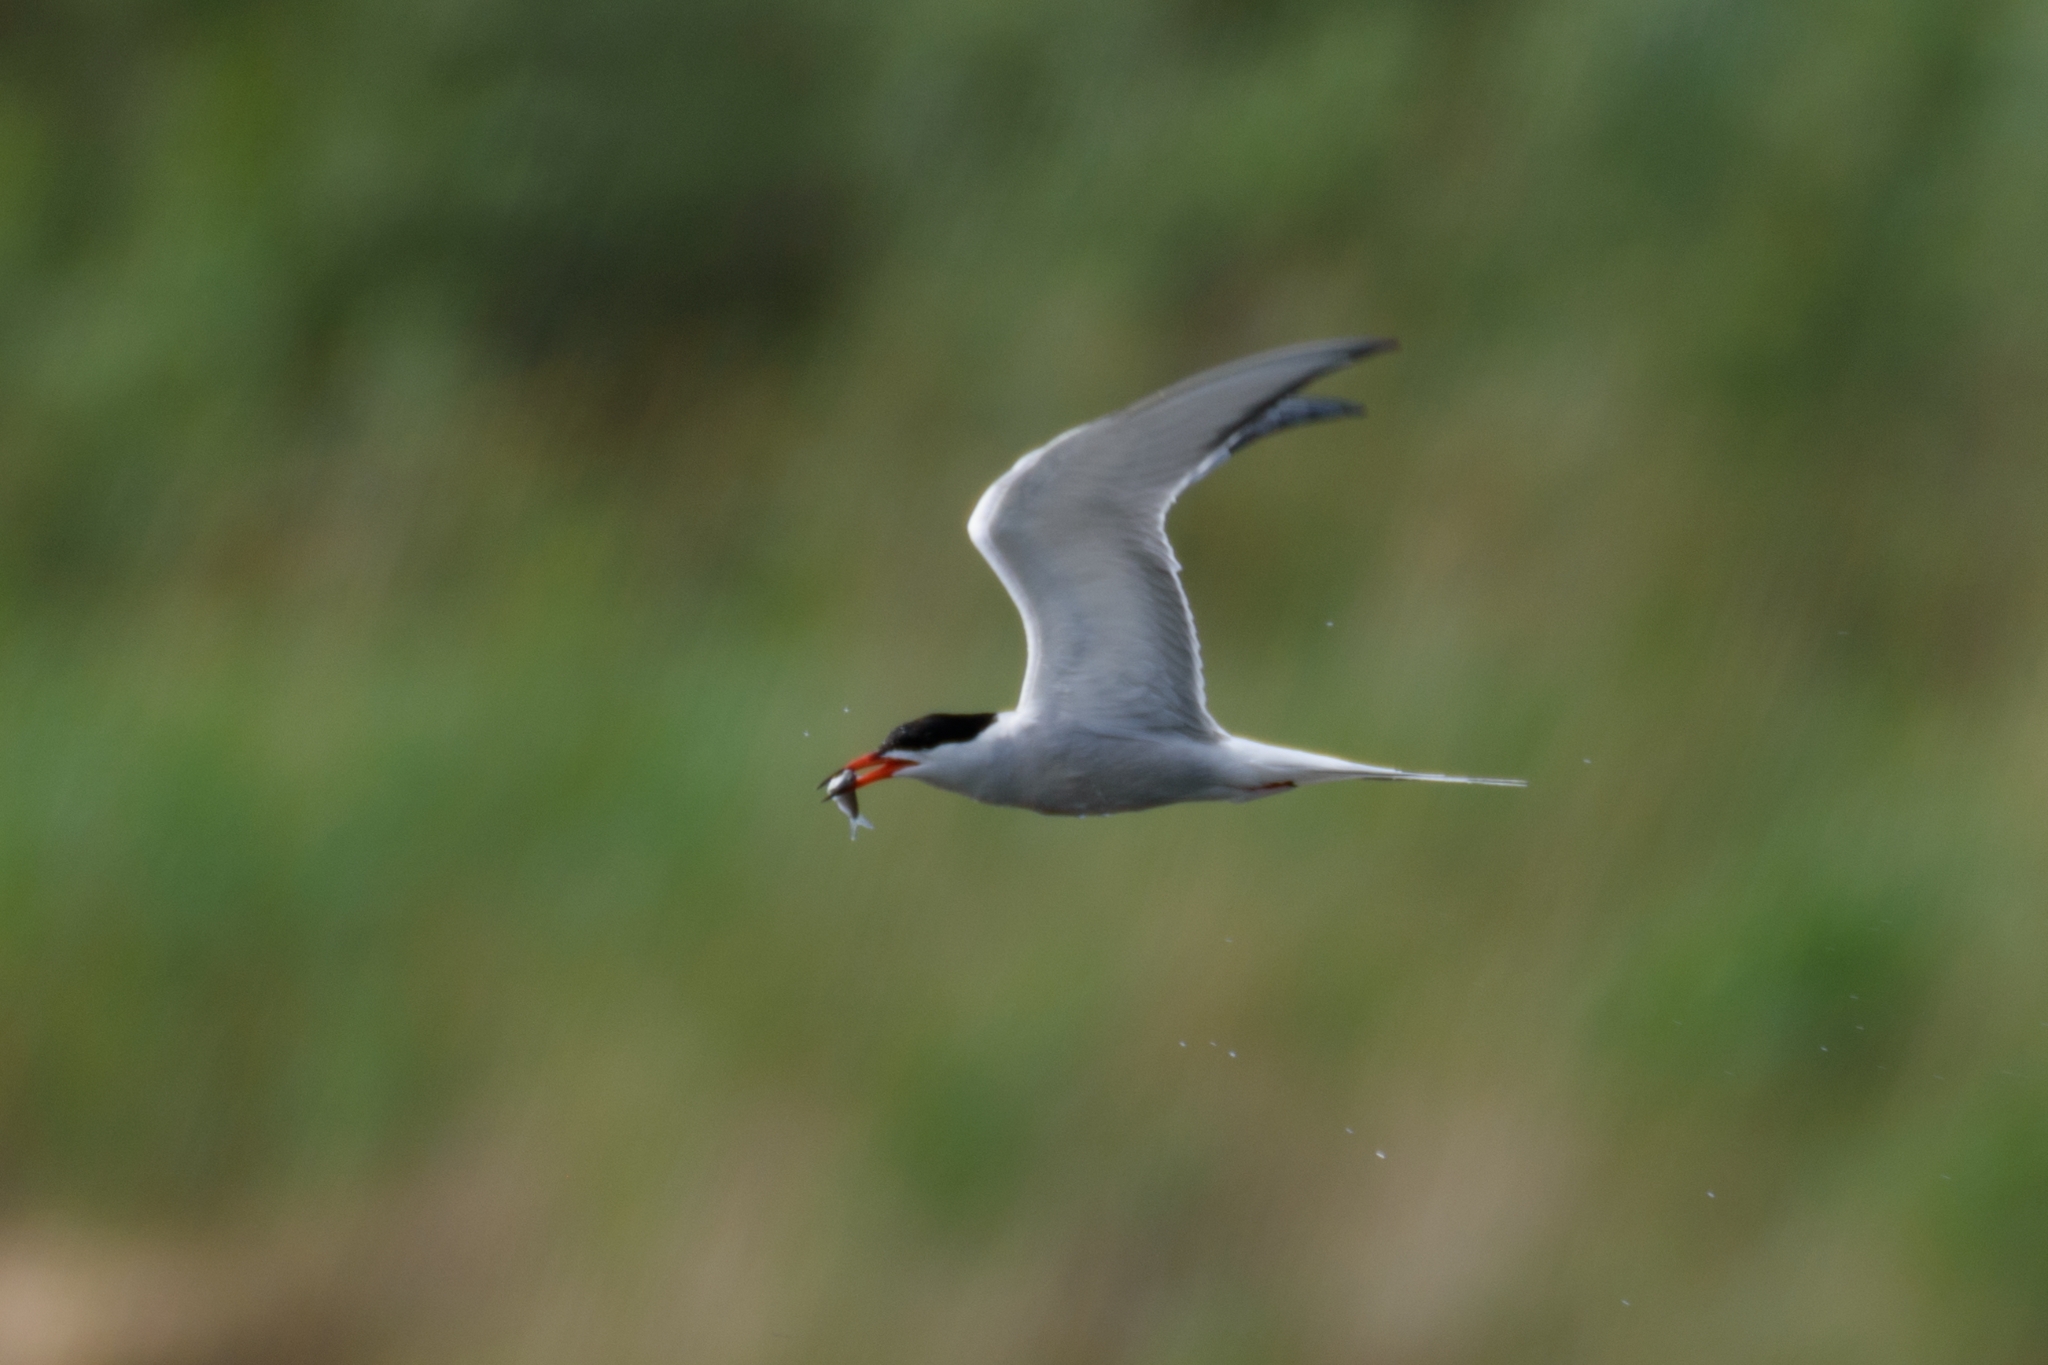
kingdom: Animalia
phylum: Chordata
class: Aves
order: Charadriiformes
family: Laridae
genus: Sterna
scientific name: Sterna hirundo
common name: Common tern
